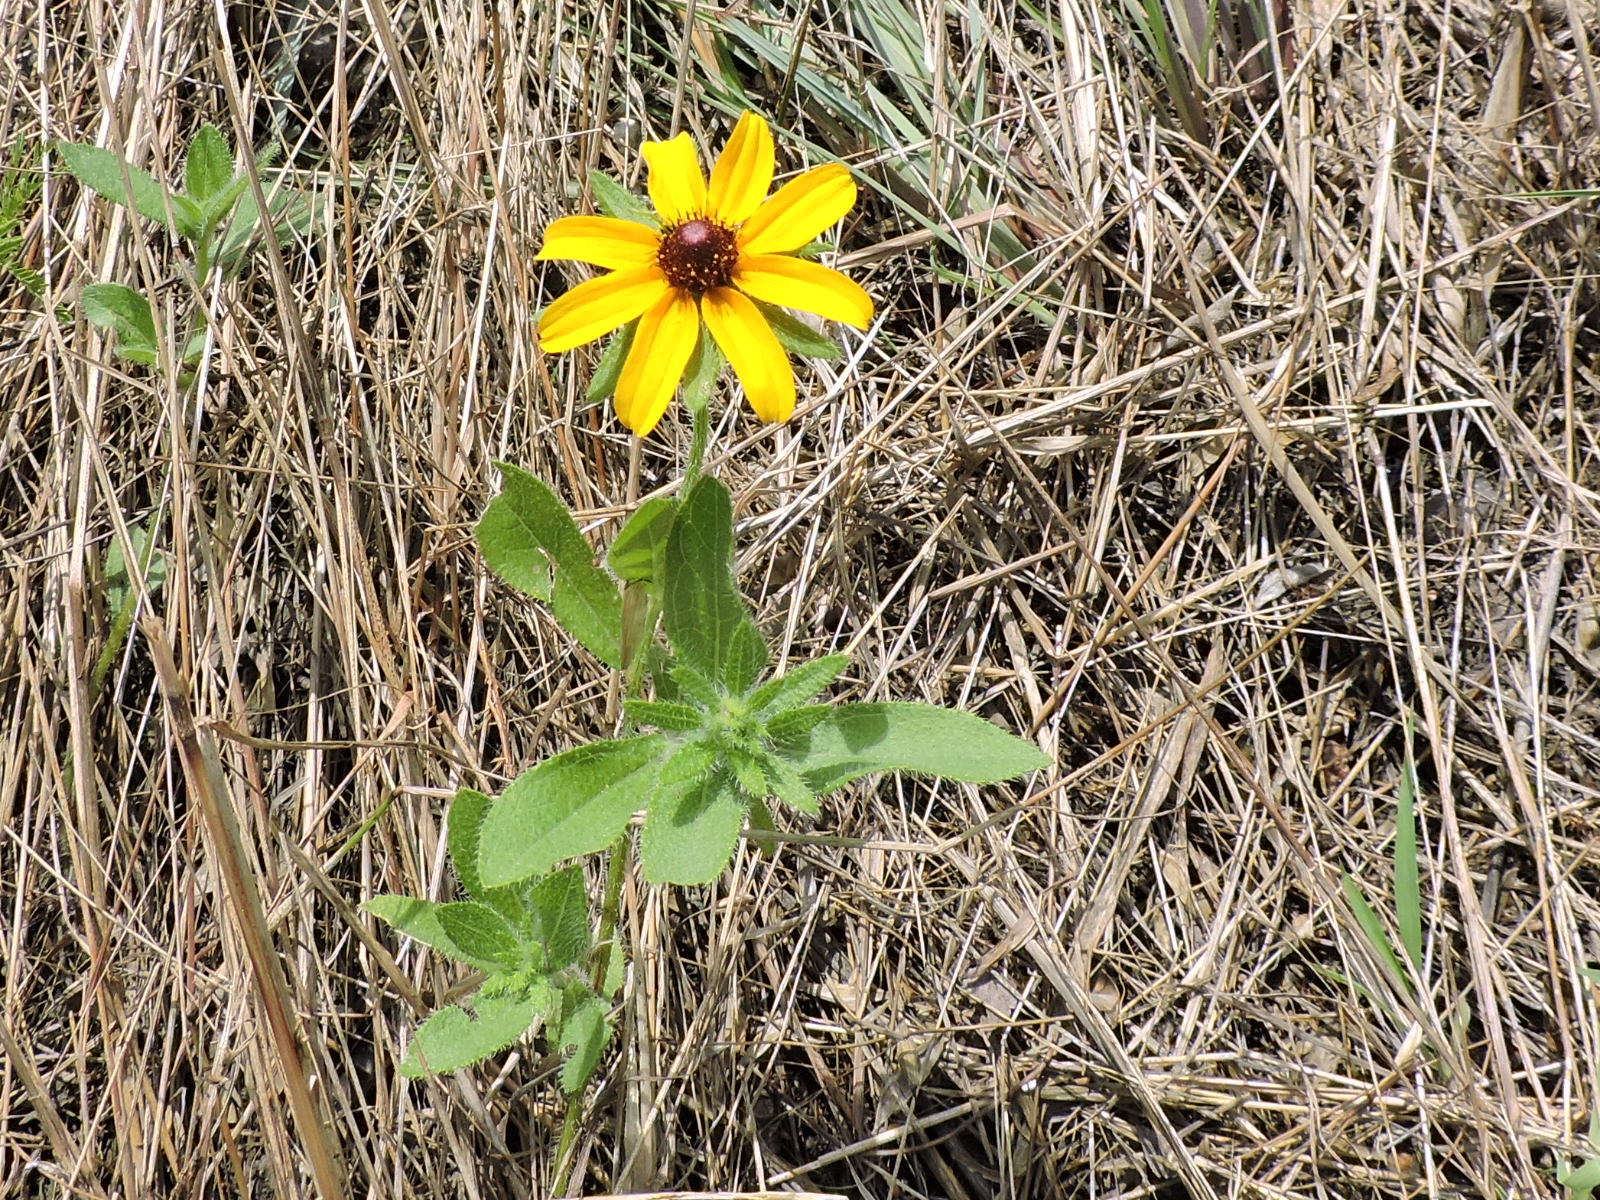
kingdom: Plantae
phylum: Tracheophyta
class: Magnoliopsida
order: Asterales
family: Asteraceae
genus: Rudbeckia
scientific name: Rudbeckia hirta
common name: Black-eyed-susan
